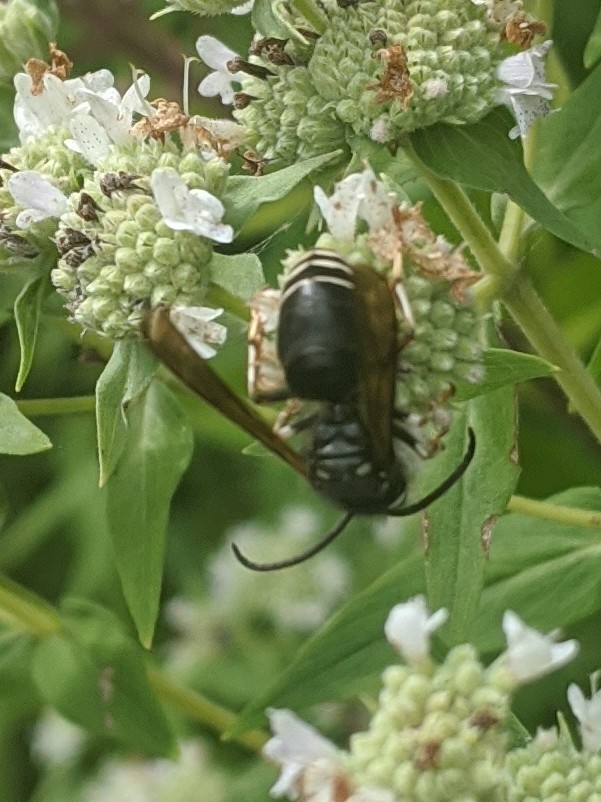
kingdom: Animalia
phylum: Arthropoda
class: Insecta
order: Hymenoptera
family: Vespidae
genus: Dolichovespula
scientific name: Dolichovespula maculata
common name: Bald-faced hornet
